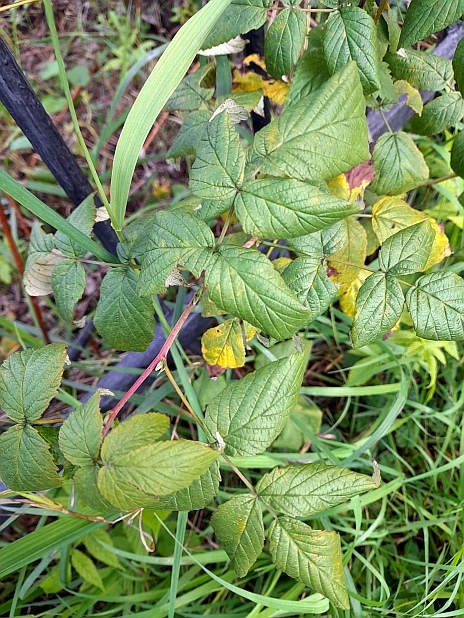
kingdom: Plantae
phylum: Tracheophyta
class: Magnoliopsida
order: Rosales
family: Rosaceae
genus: Rubus
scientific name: Rubus idaeus
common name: Raspberry
